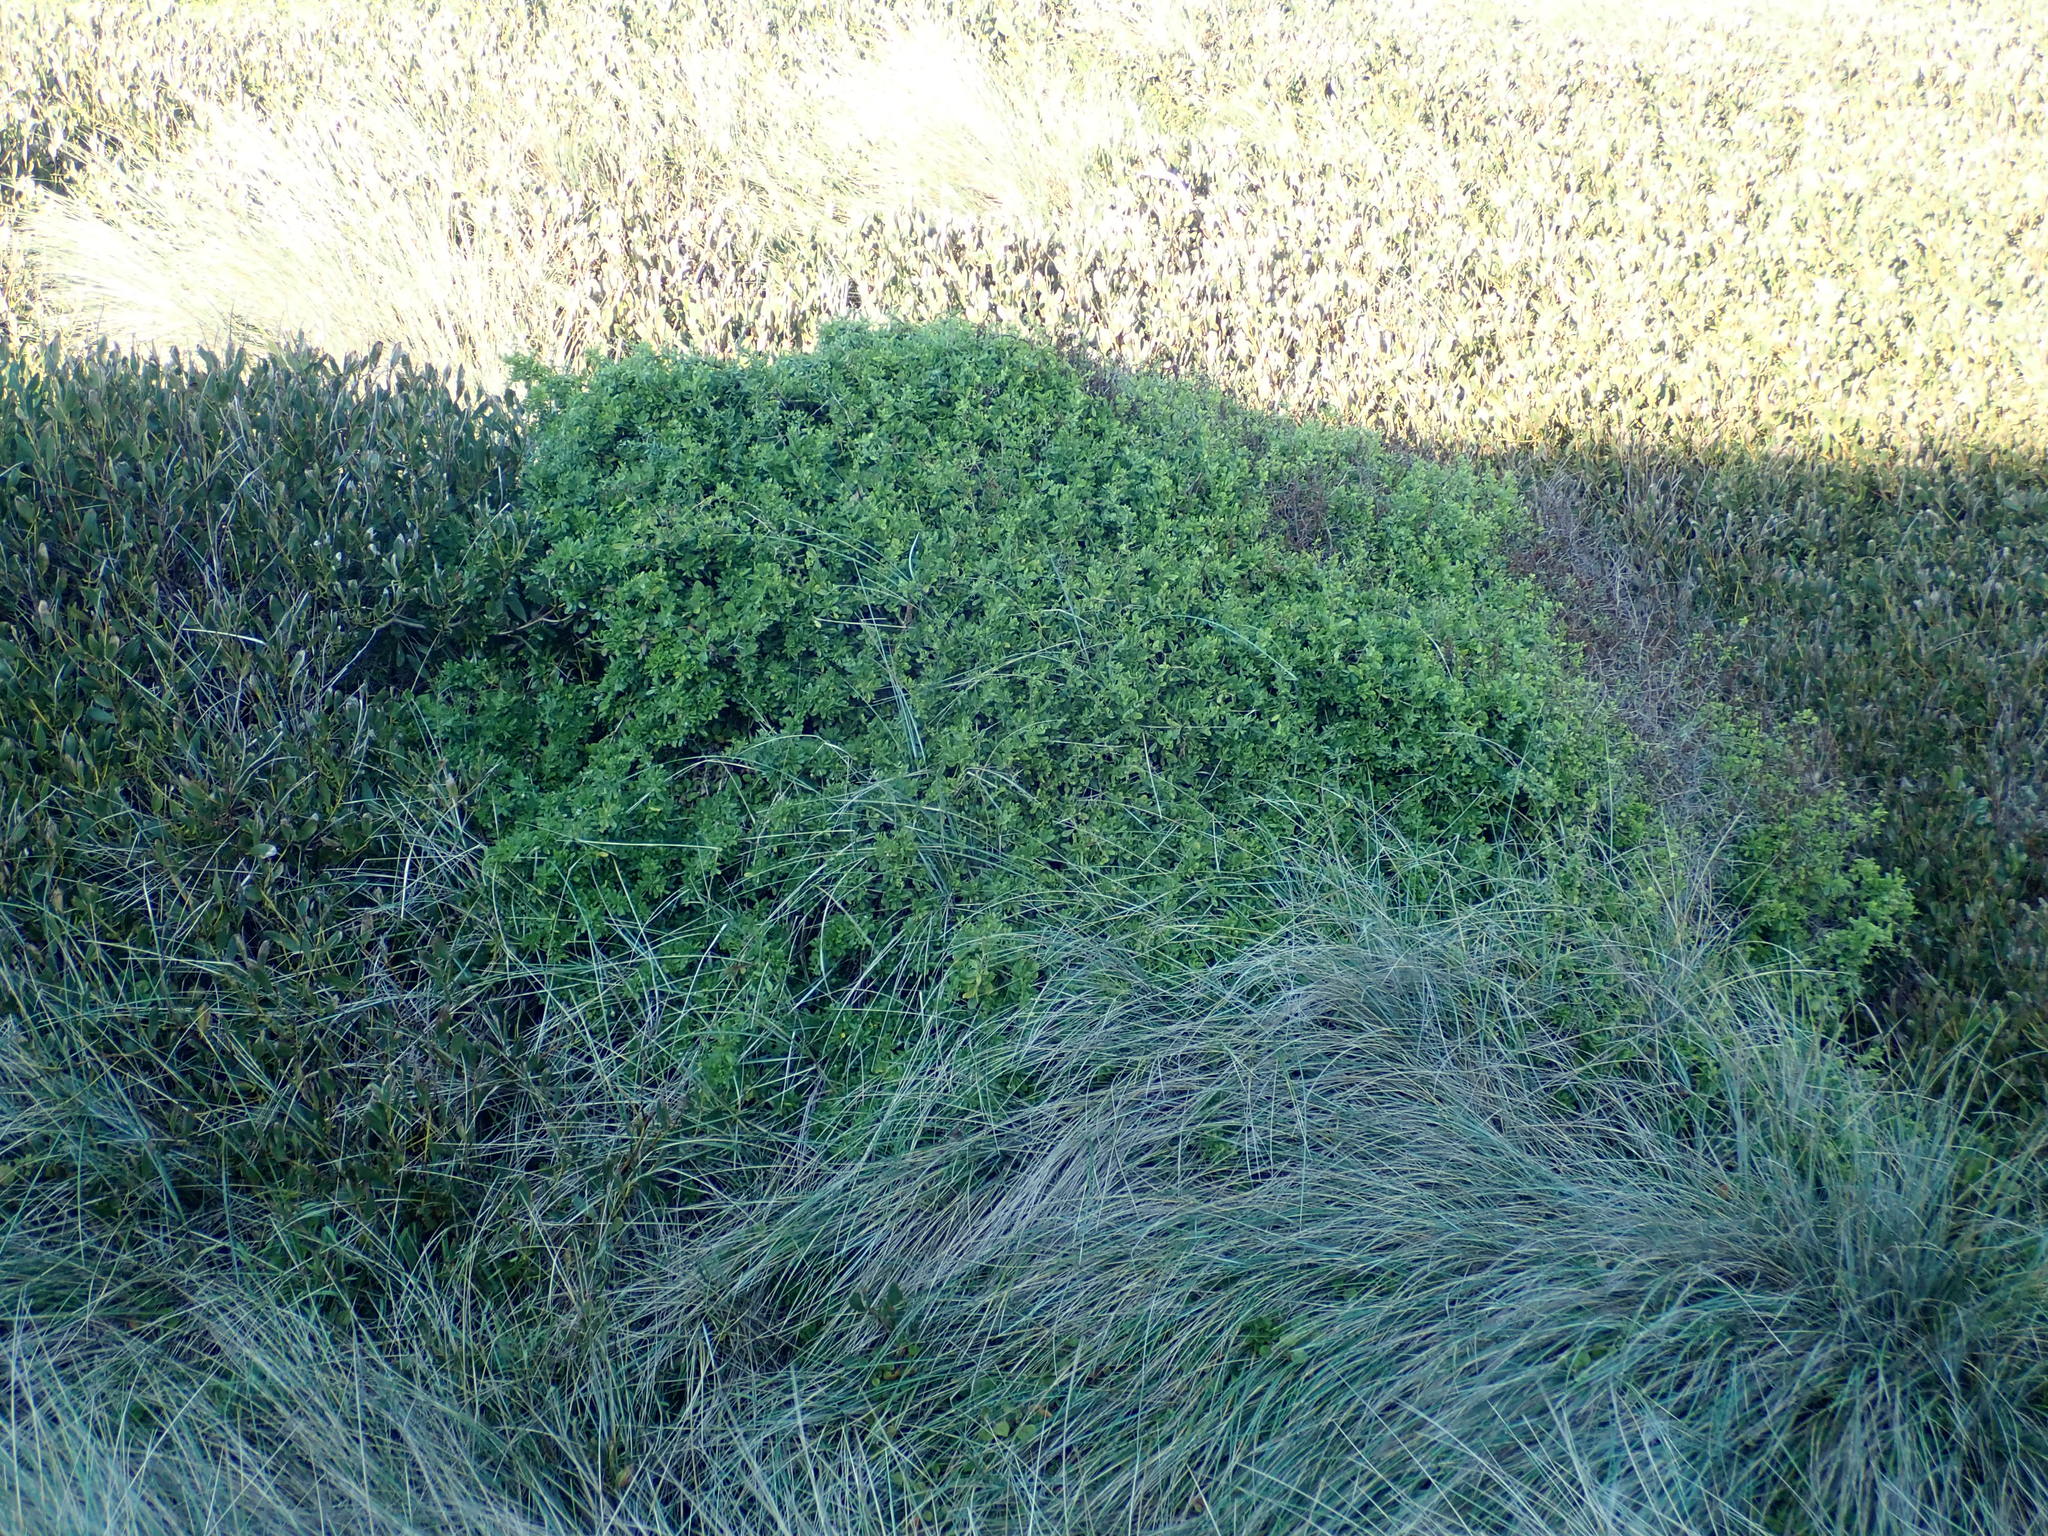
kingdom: Plantae
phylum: Tracheophyta
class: Magnoliopsida
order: Solanales
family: Solanaceae
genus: Lycium
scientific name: Lycium ferocissimum
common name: African boxthorn
